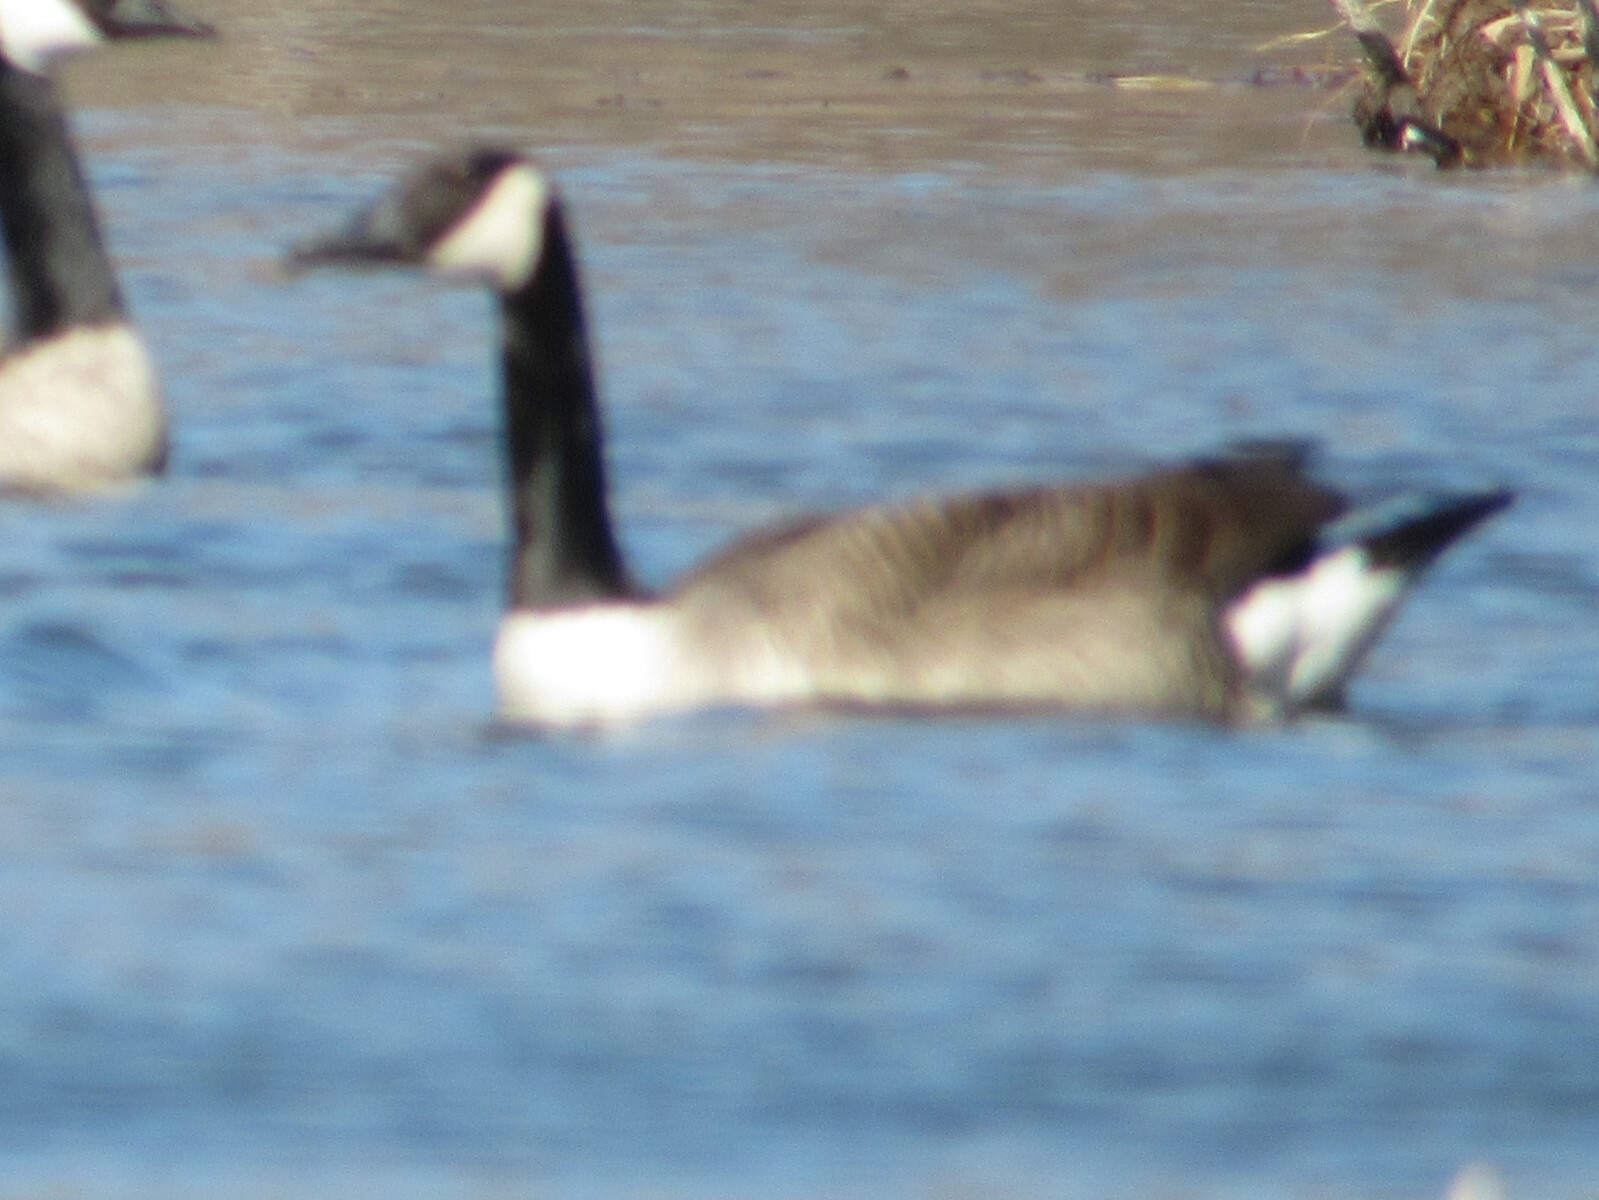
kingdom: Animalia
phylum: Chordata
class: Aves
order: Anseriformes
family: Anatidae
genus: Branta
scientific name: Branta canadensis
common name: Canada goose
